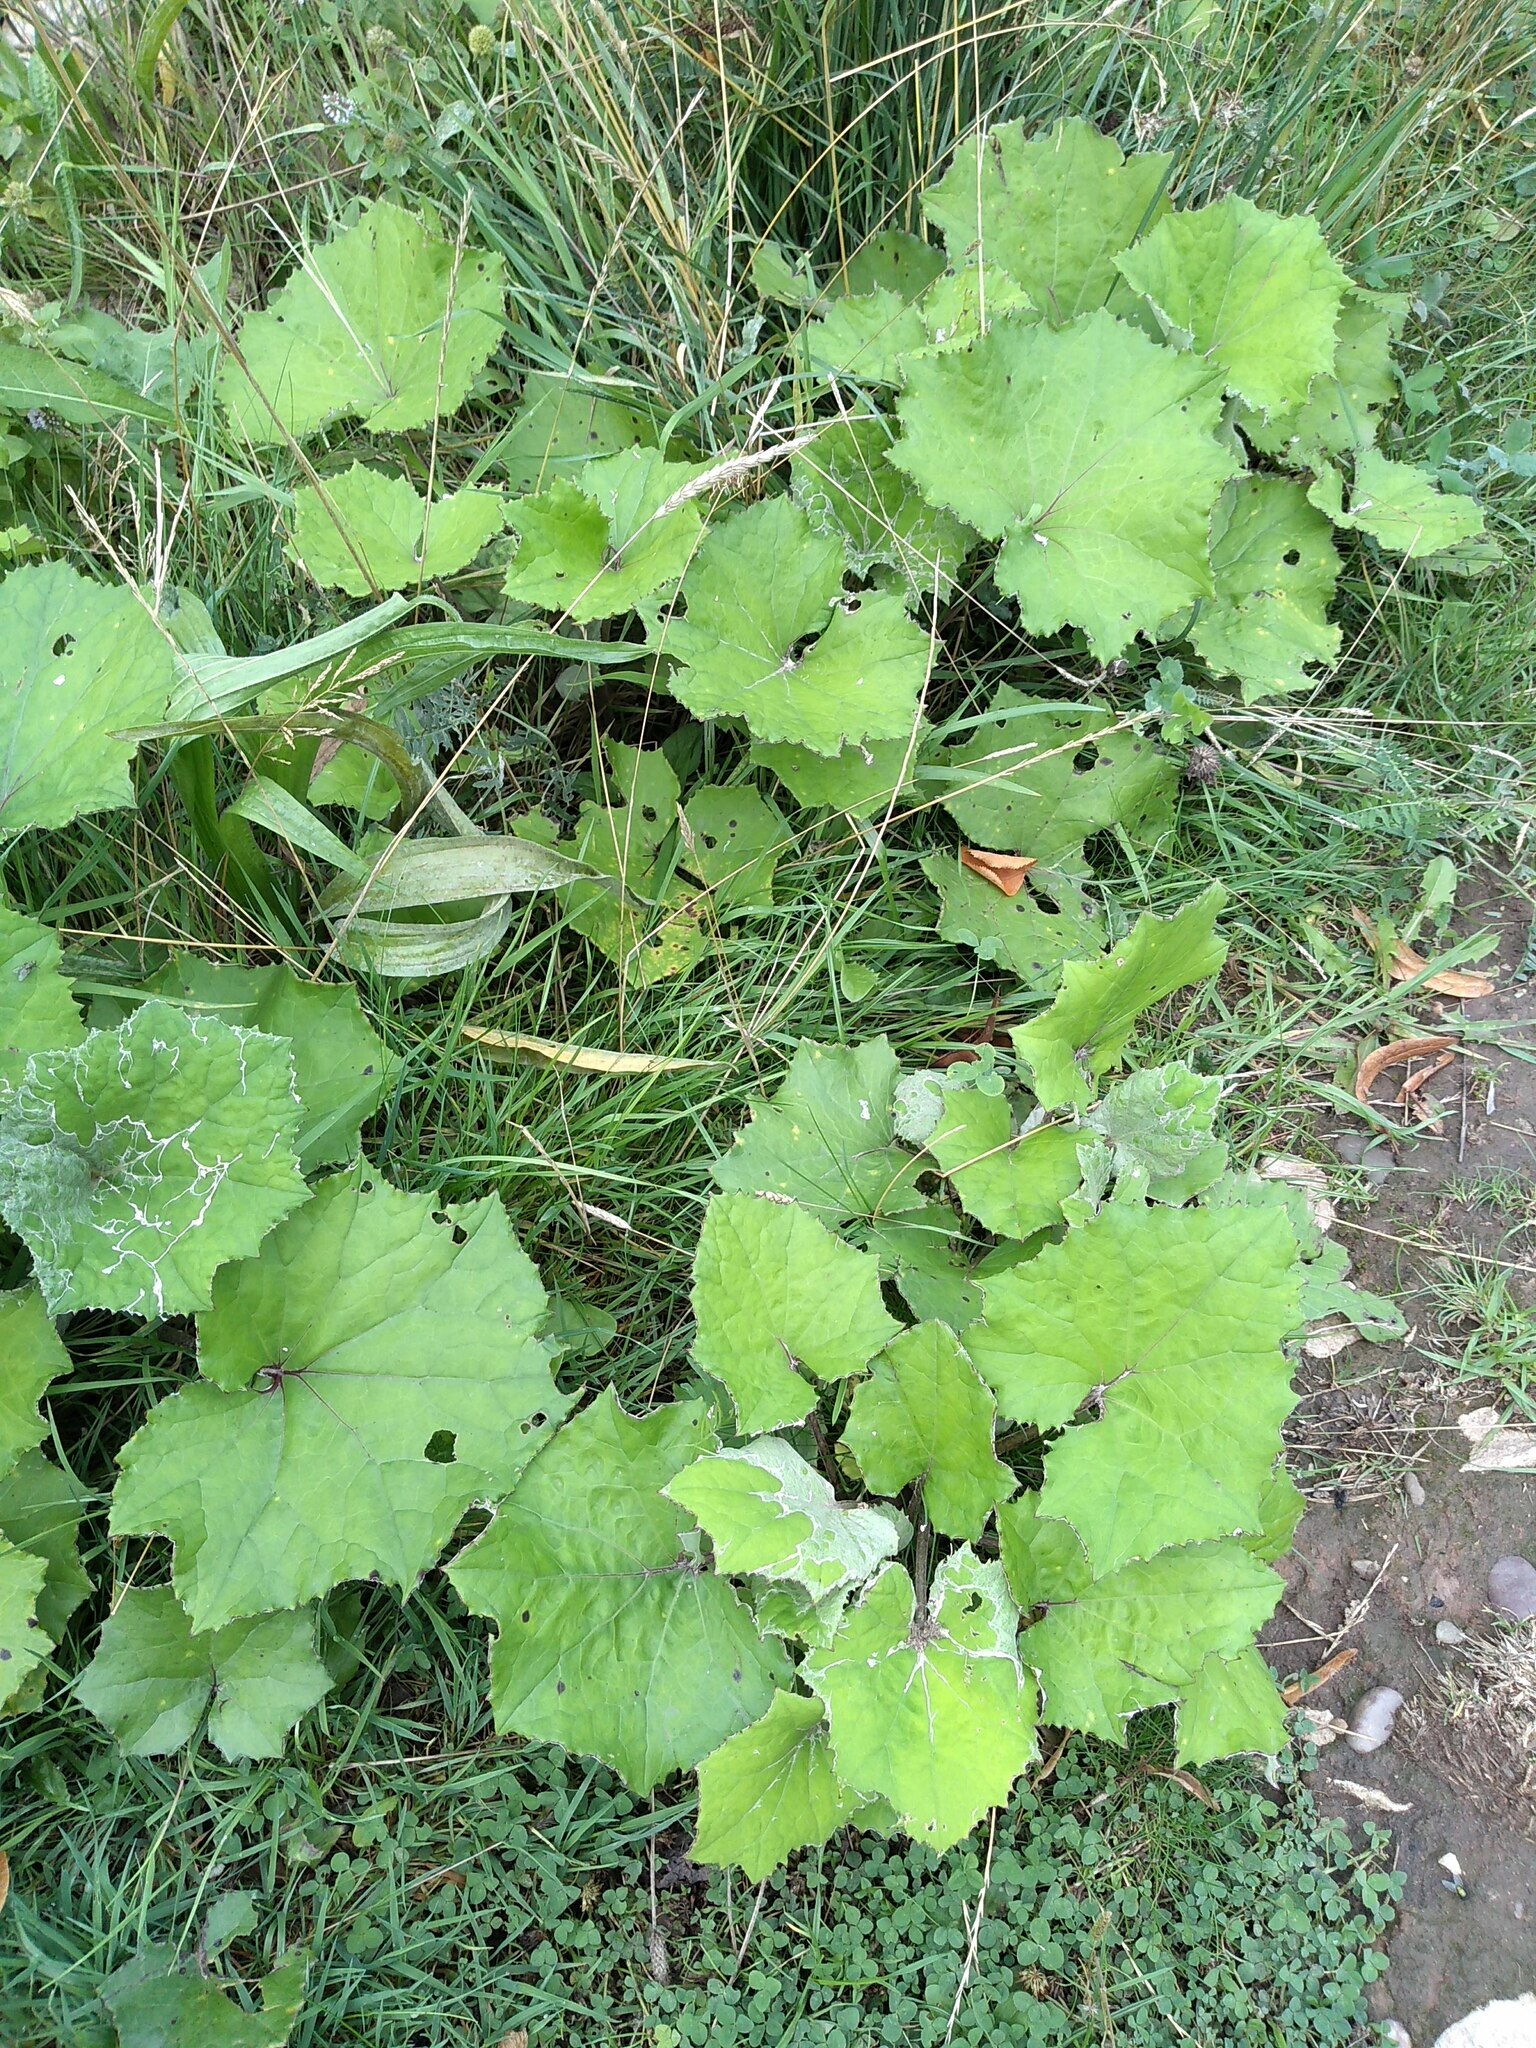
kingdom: Plantae
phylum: Tracheophyta
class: Magnoliopsida
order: Asterales
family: Asteraceae
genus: Tussilago
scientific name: Tussilago farfara
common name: Coltsfoot
